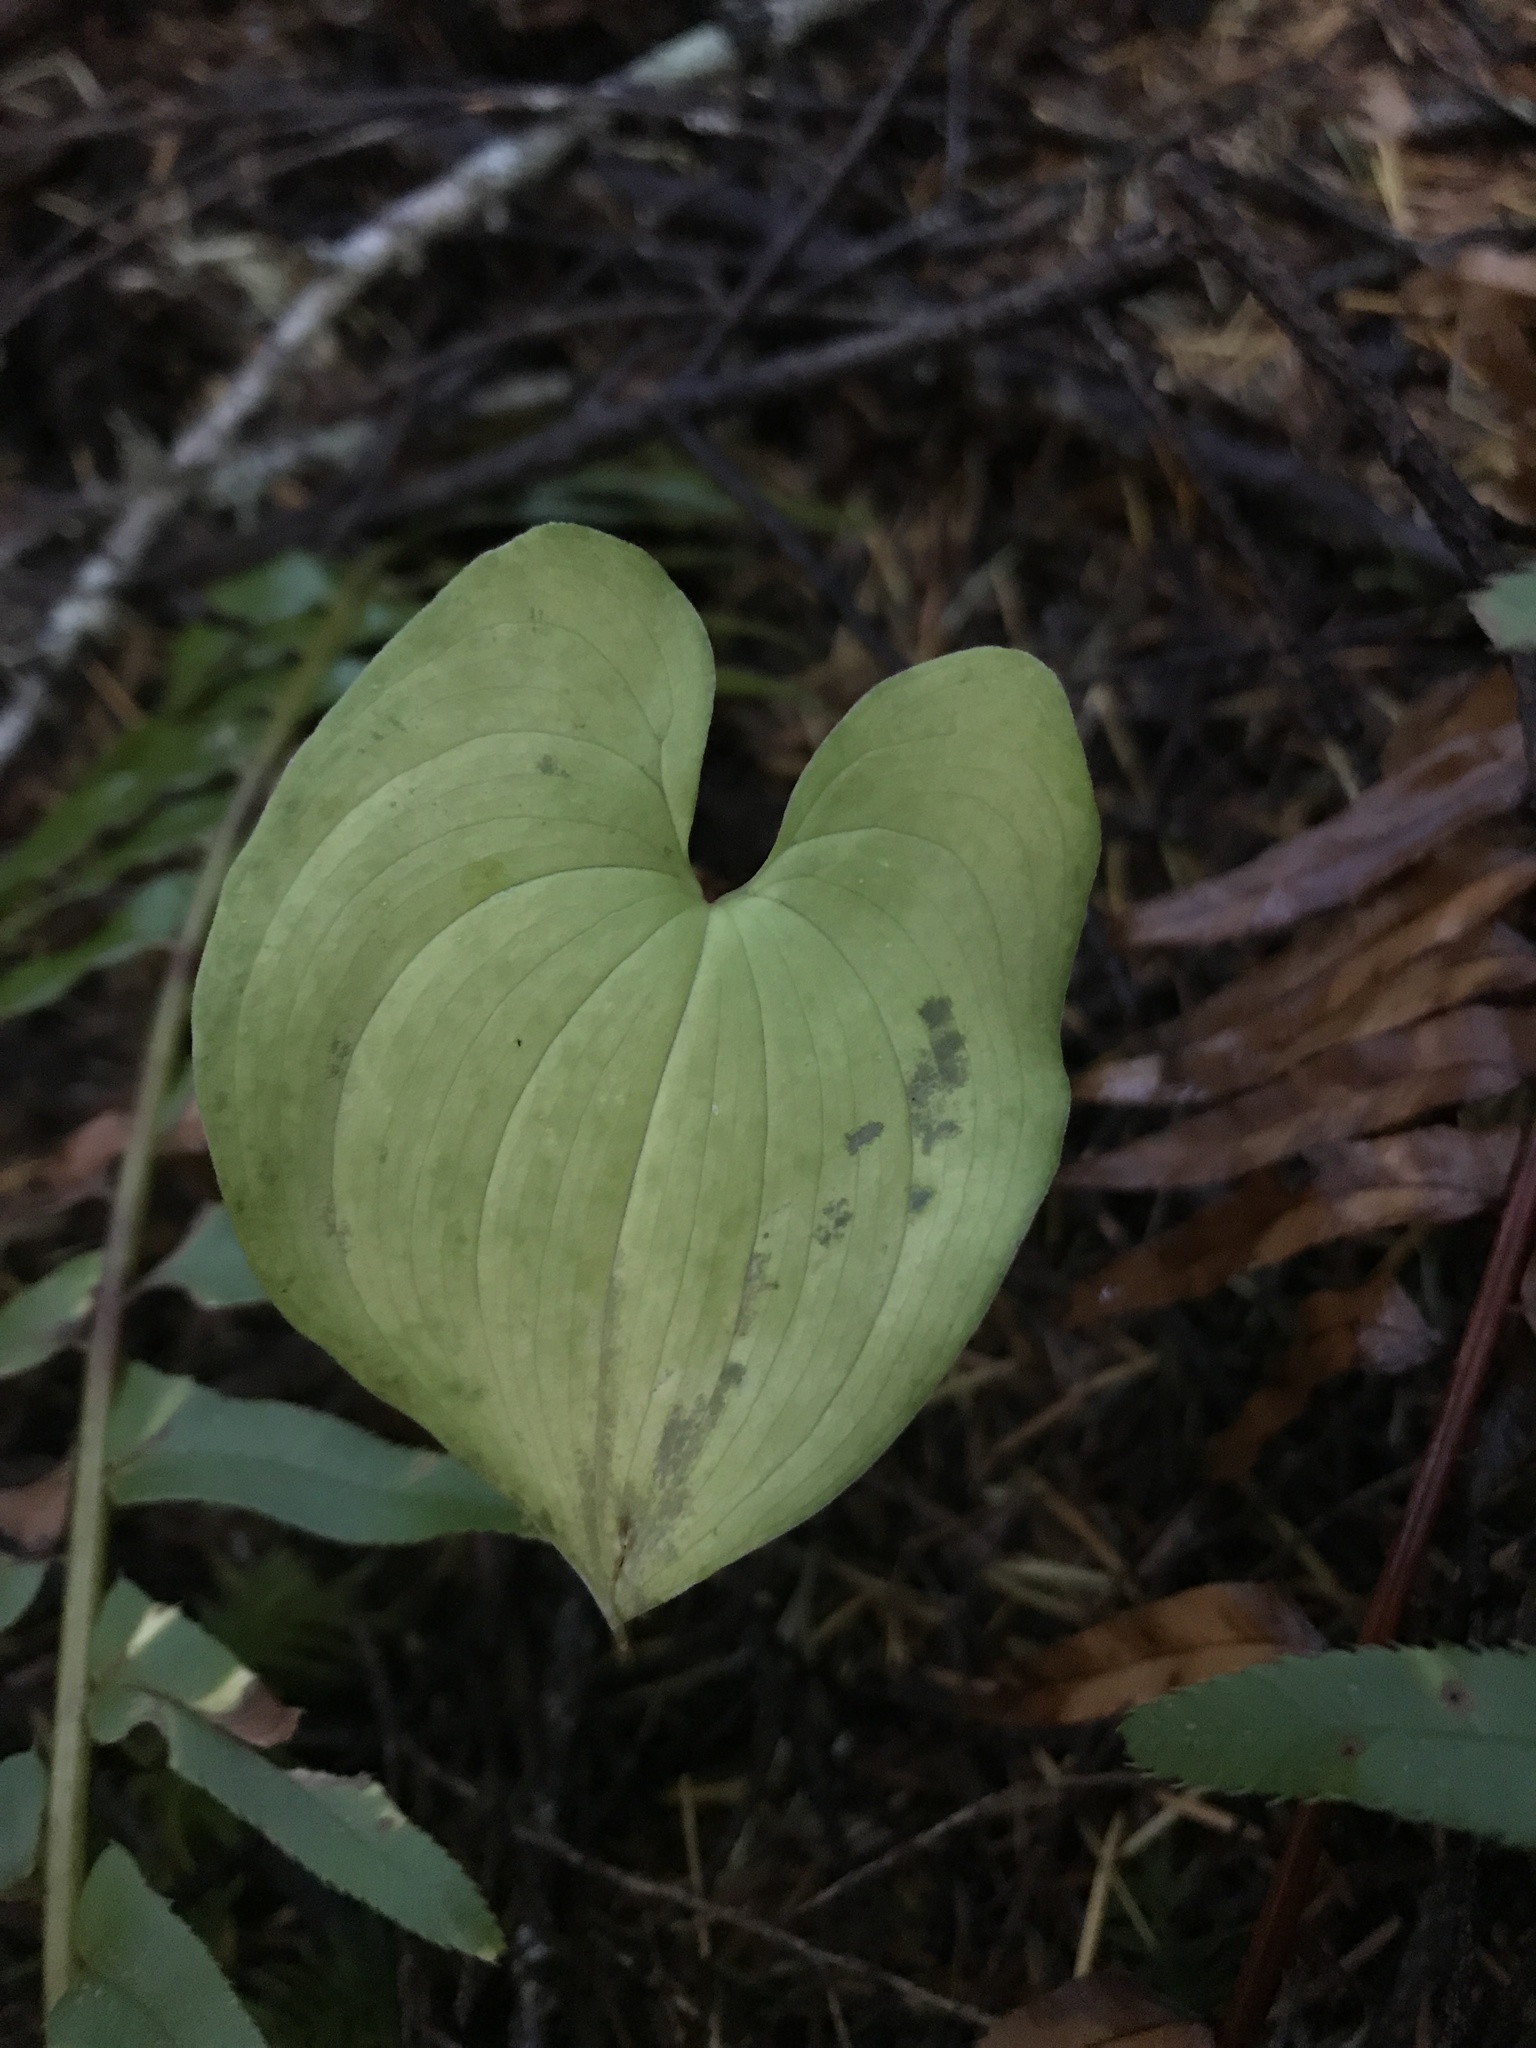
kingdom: Plantae
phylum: Tracheophyta
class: Liliopsida
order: Asparagales
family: Asparagaceae
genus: Maianthemum
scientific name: Maianthemum dilatatum
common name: False lily-of-the-valley
